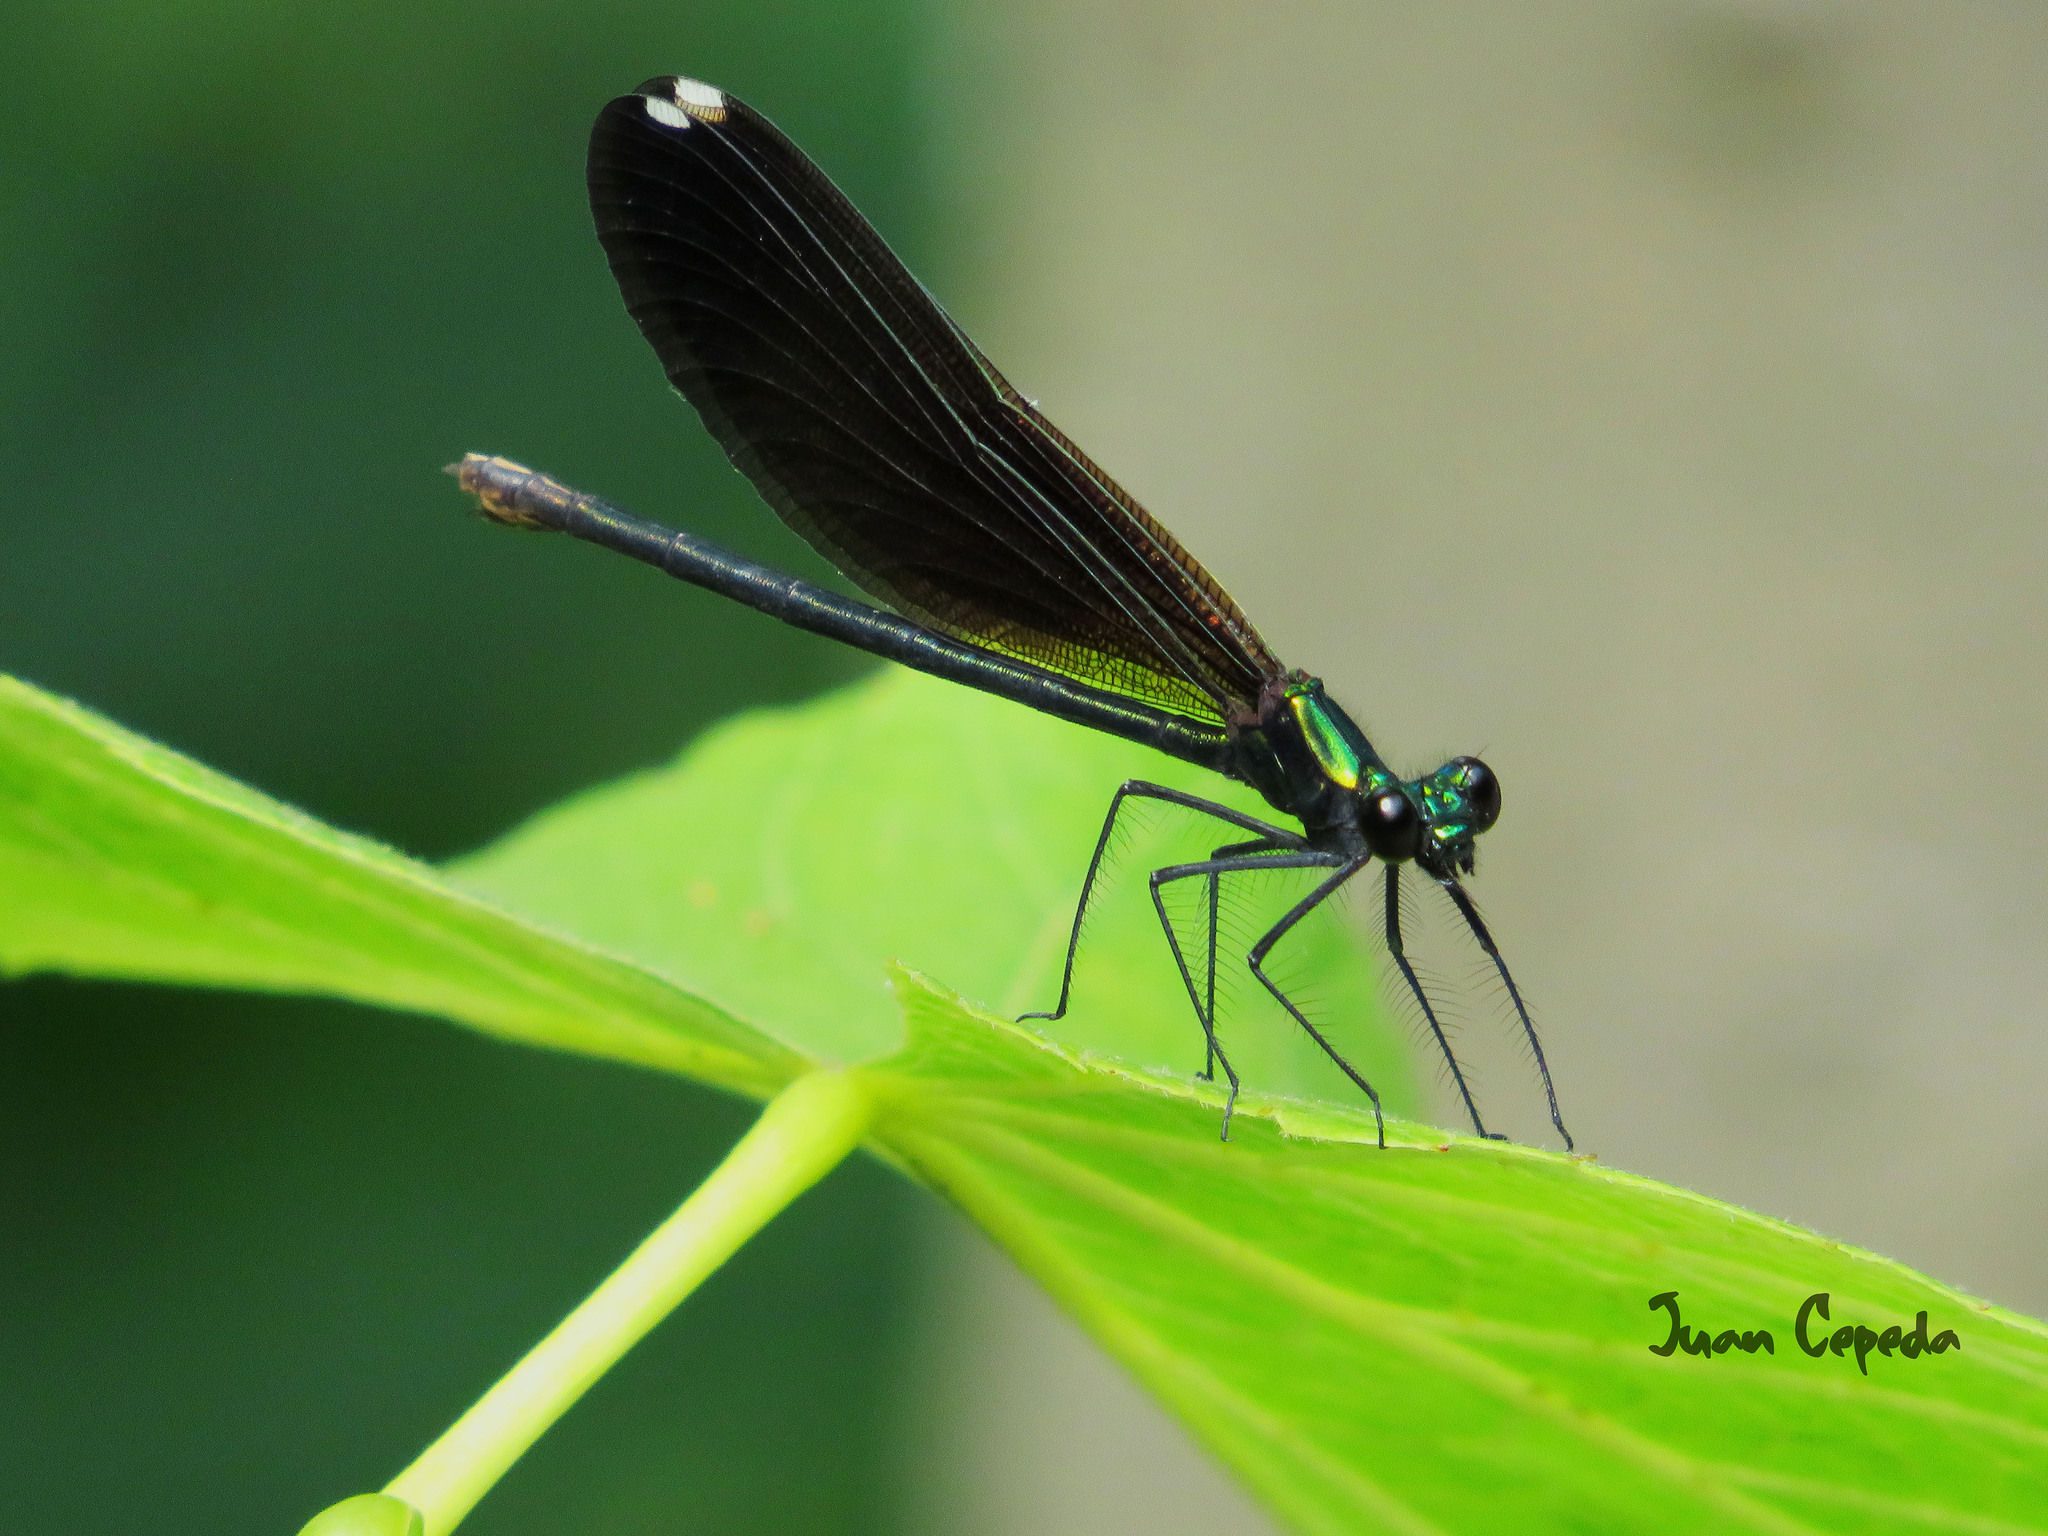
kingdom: Animalia
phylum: Arthropoda
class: Insecta
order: Odonata
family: Calopterygidae
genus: Calopteryx
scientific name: Calopteryx maculata
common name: Ebony jewelwing
